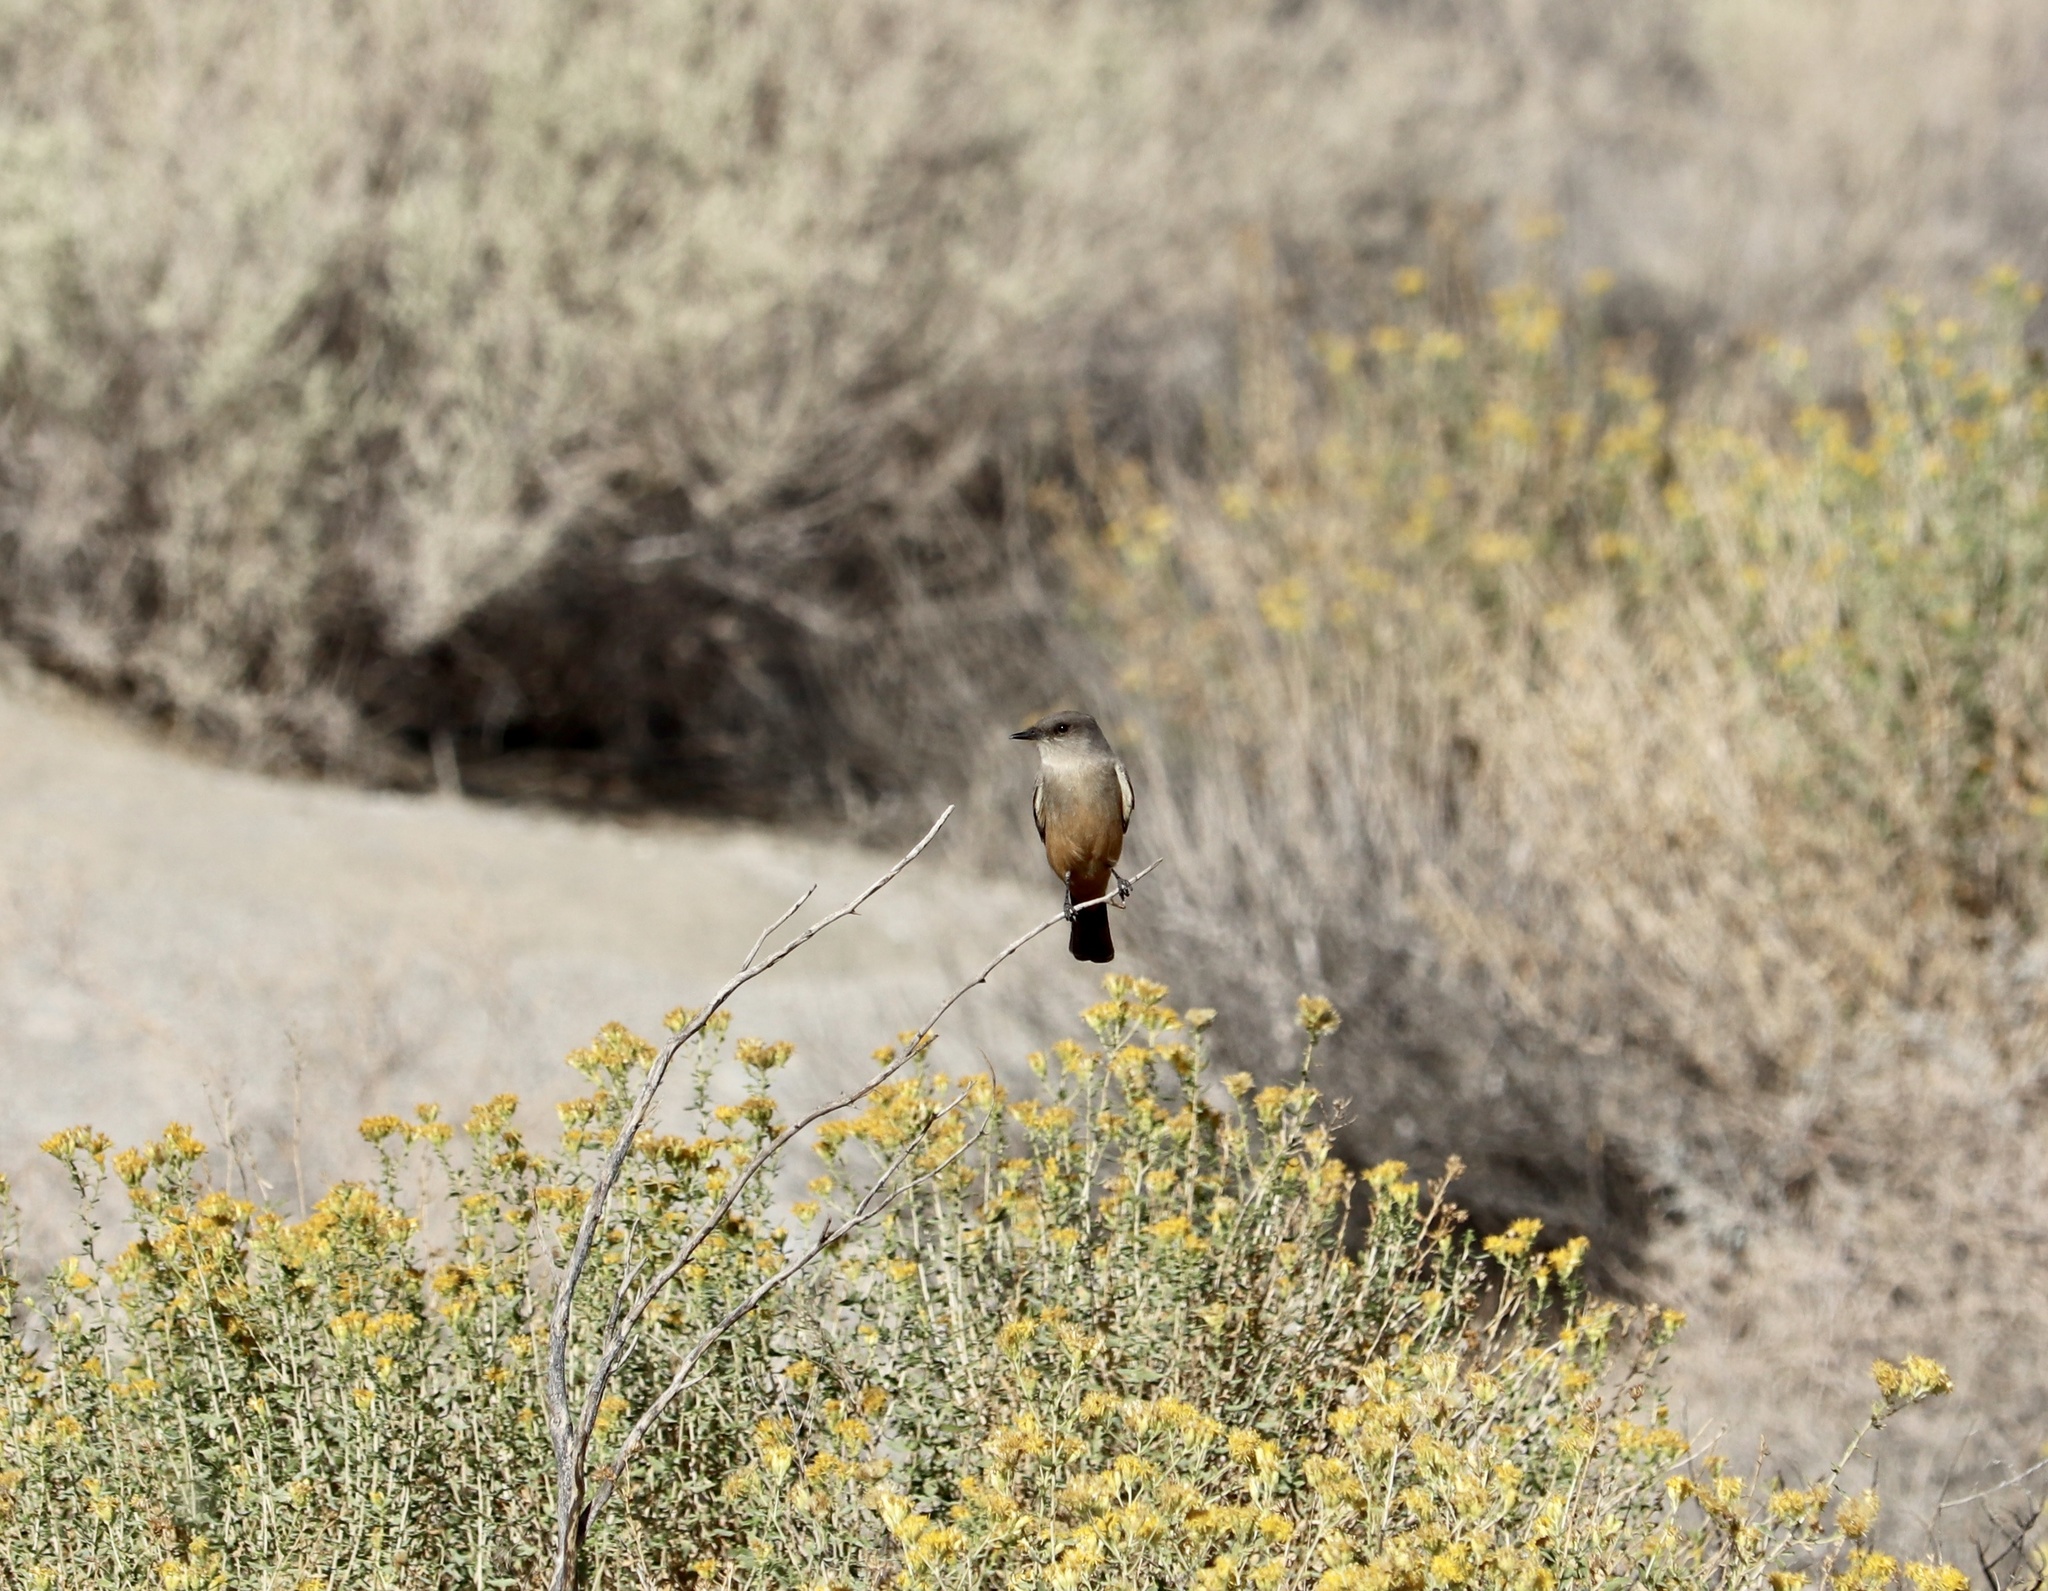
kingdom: Animalia
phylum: Chordata
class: Aves
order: Passeriformes
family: Tyrannidae
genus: Sayornis
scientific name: Sayornis saya
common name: Say's phoebe
